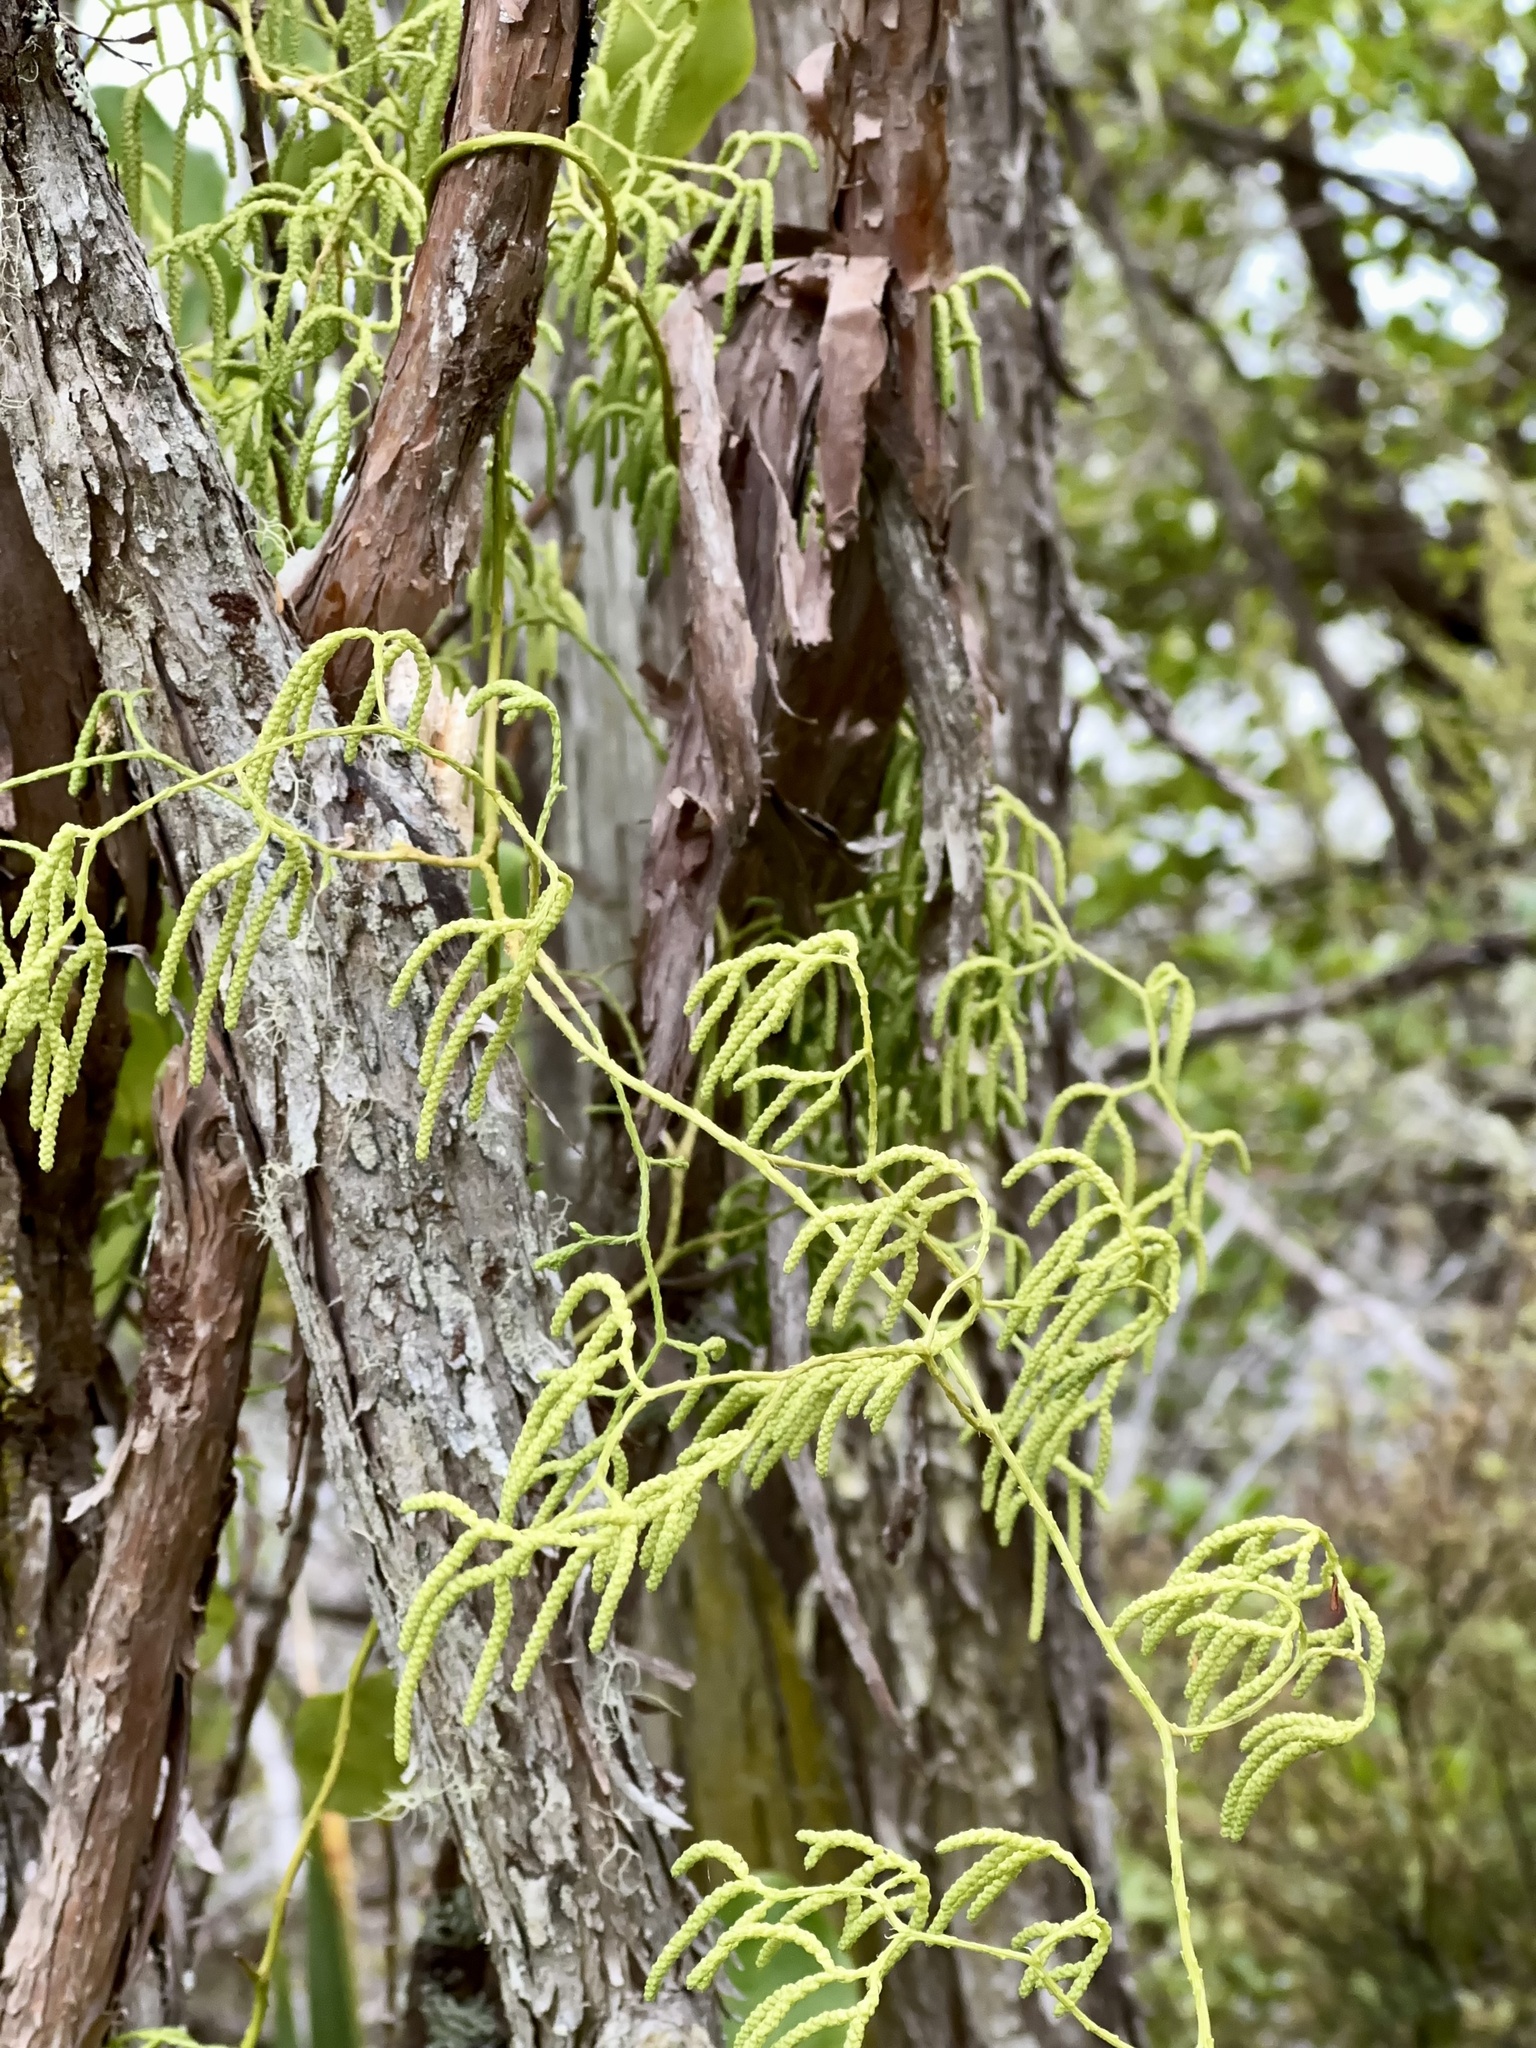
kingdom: Plantae
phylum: Tracheophyta
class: Lycopodiopsida
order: Lycopodiales
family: Lycopodiaceae
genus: Lycopodium
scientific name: Lycopodium volubile
